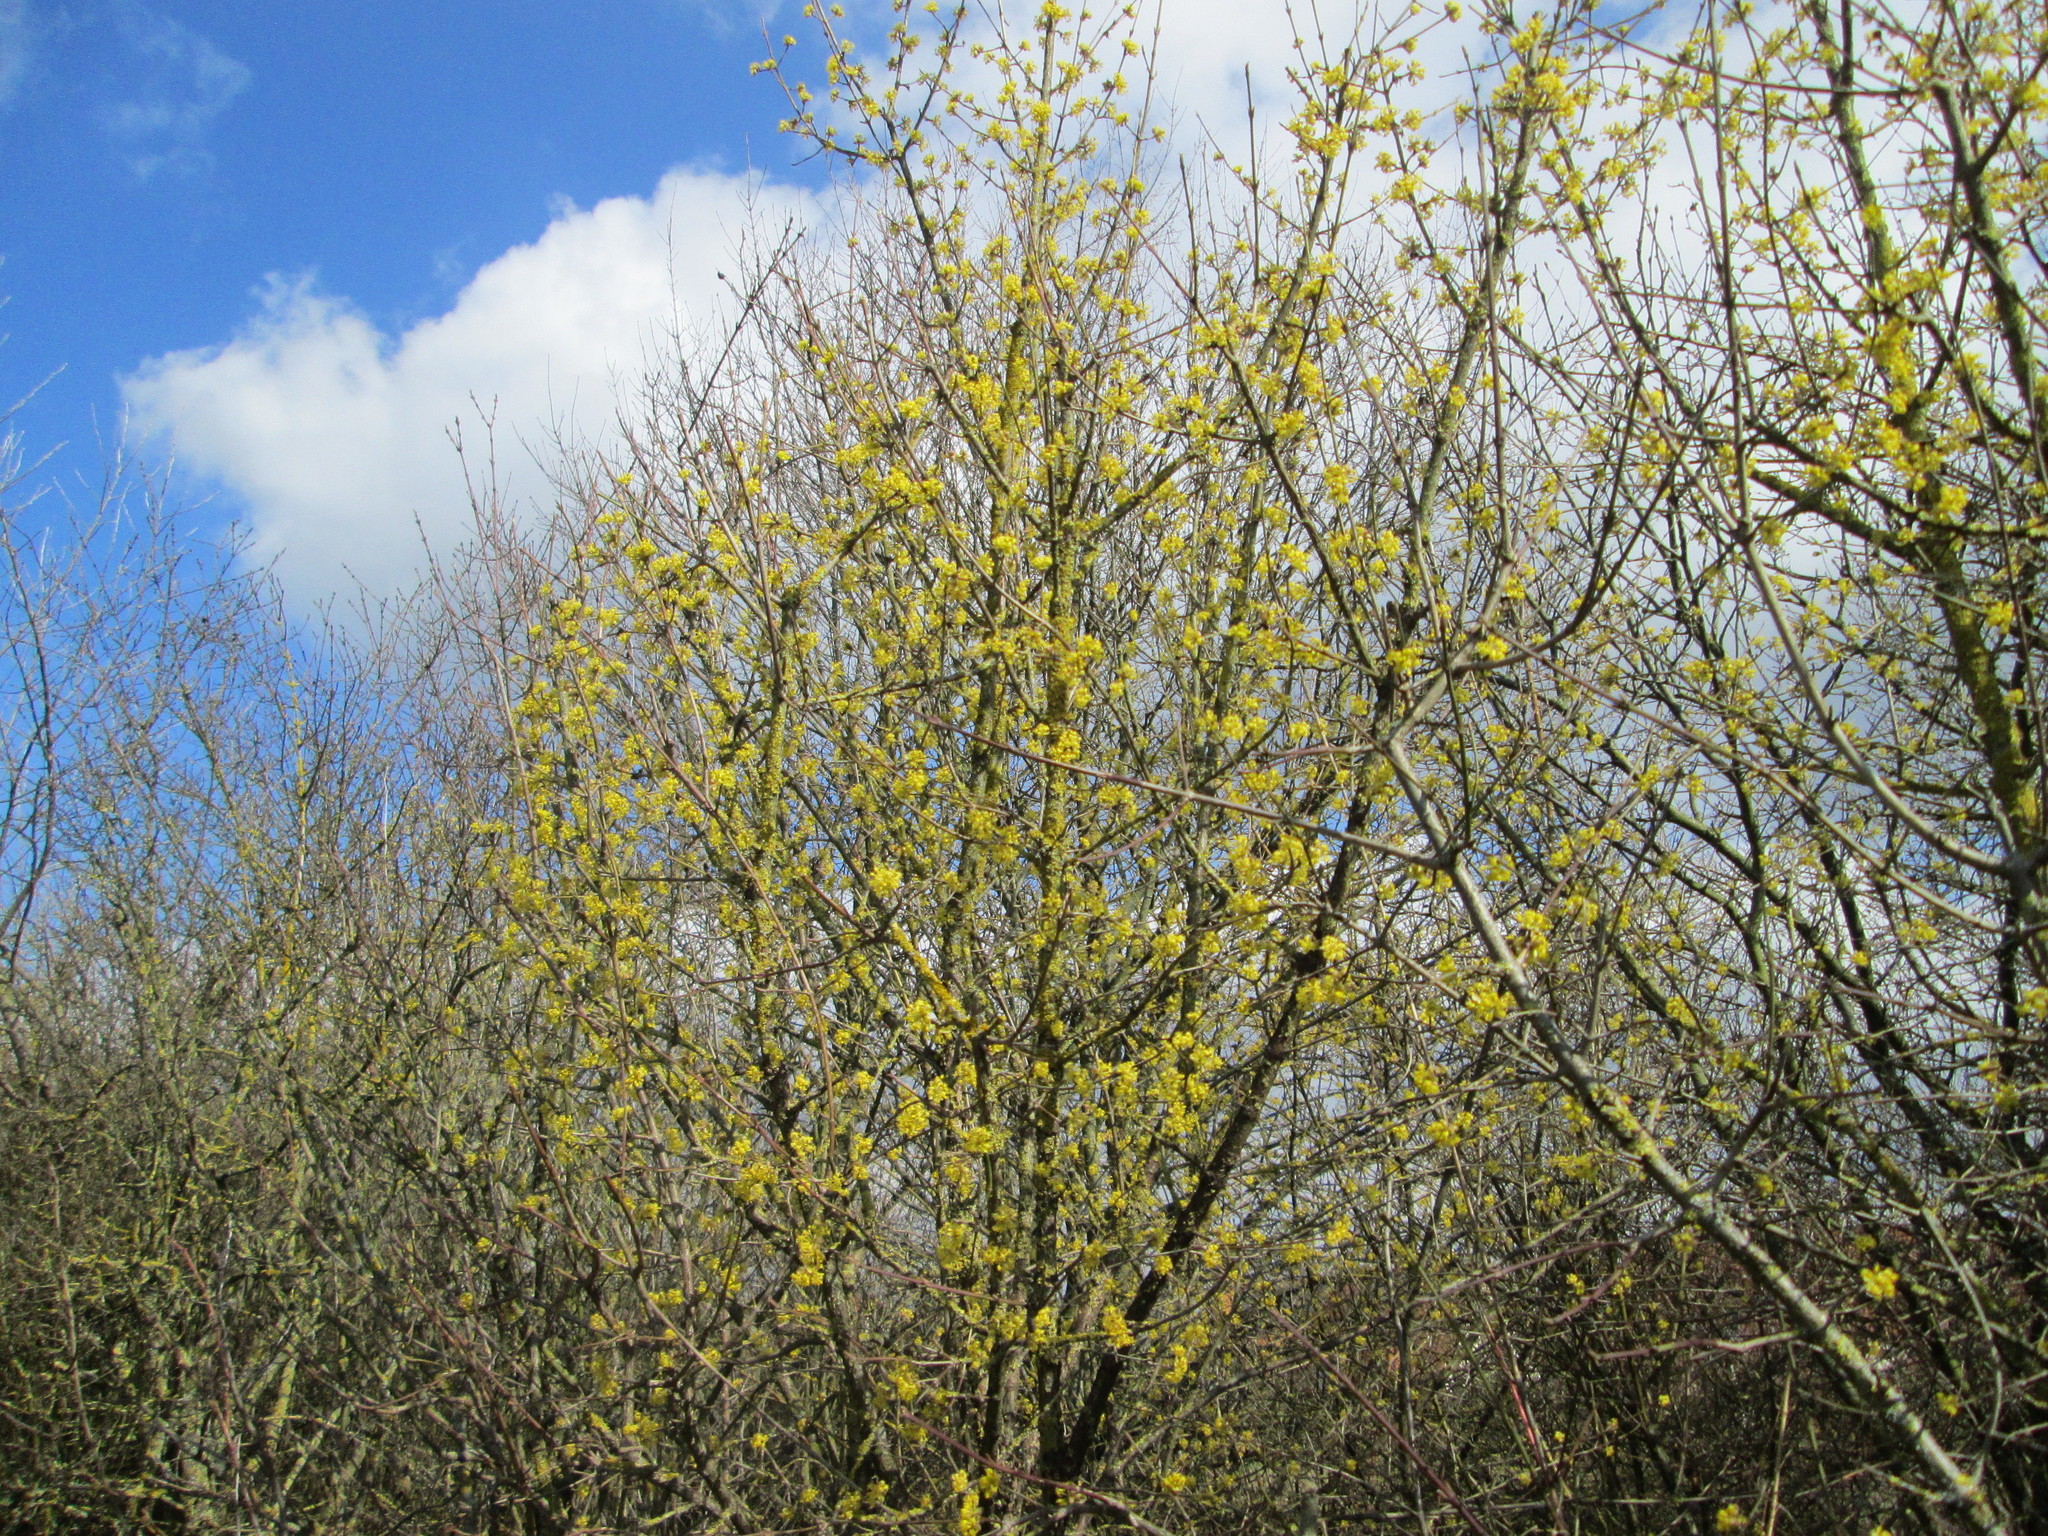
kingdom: Plantae
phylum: Tracheophyta
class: Magnoliopsida
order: Cornales
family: Cornaceae
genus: Cornus
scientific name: Cornus mas
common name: Cornelian-cherry
